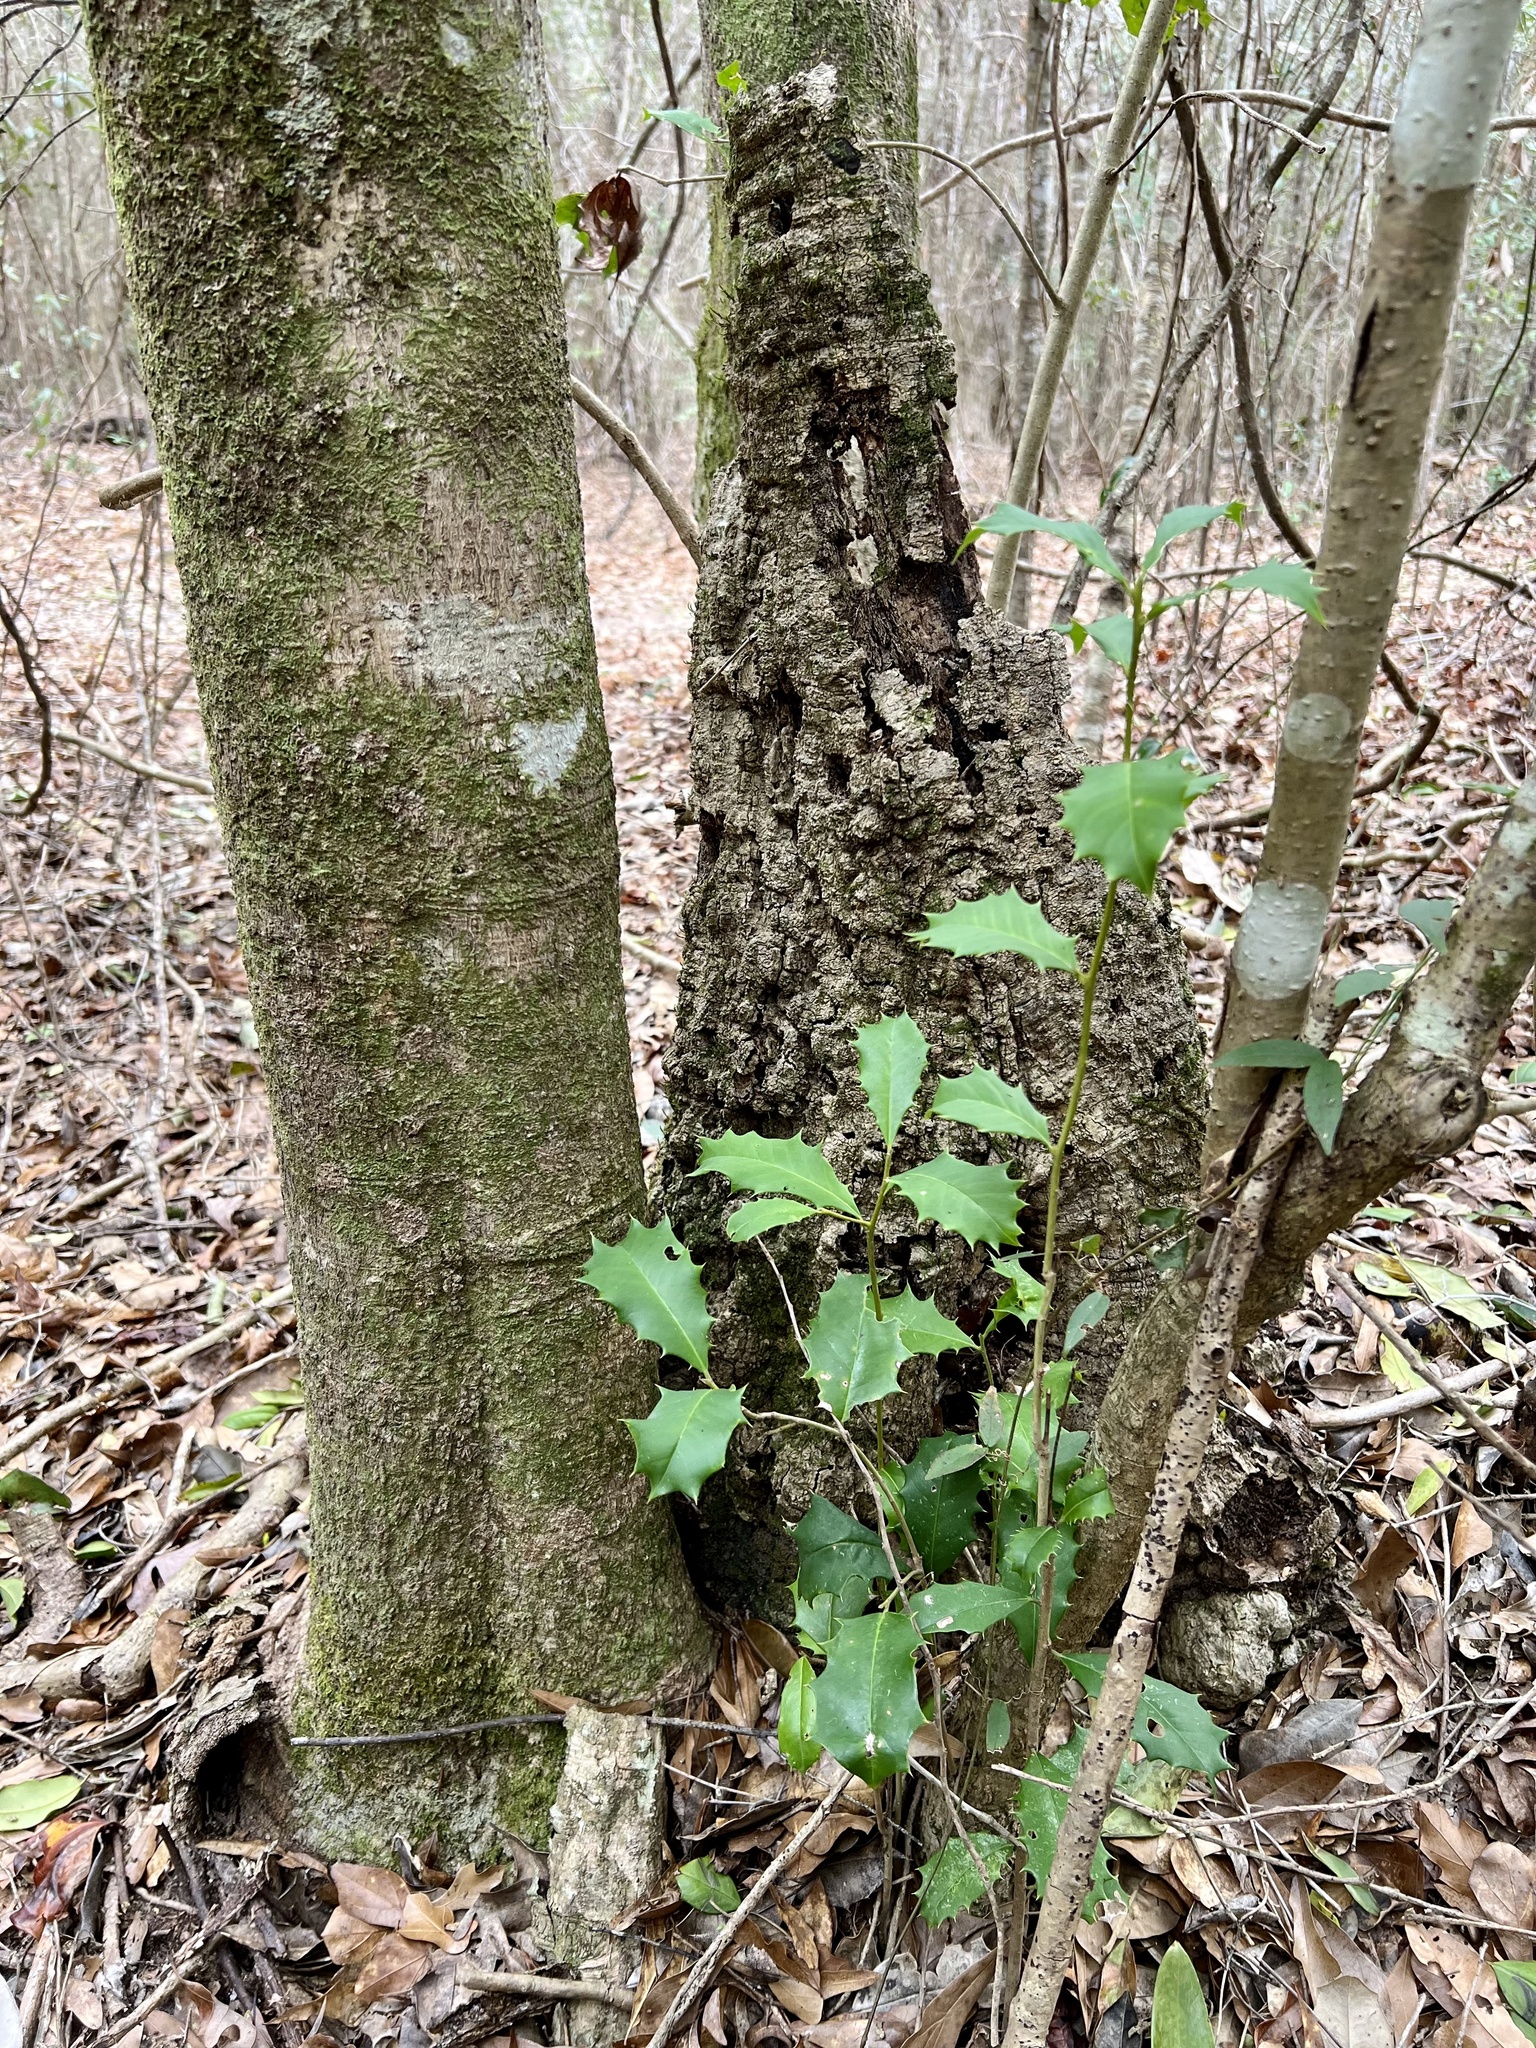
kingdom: Plantae
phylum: Tracheophyta
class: Magnoliopsida
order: Aquifoliales
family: Aquifoliaceae
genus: Ilex
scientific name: Ilex opaca
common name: American holly
